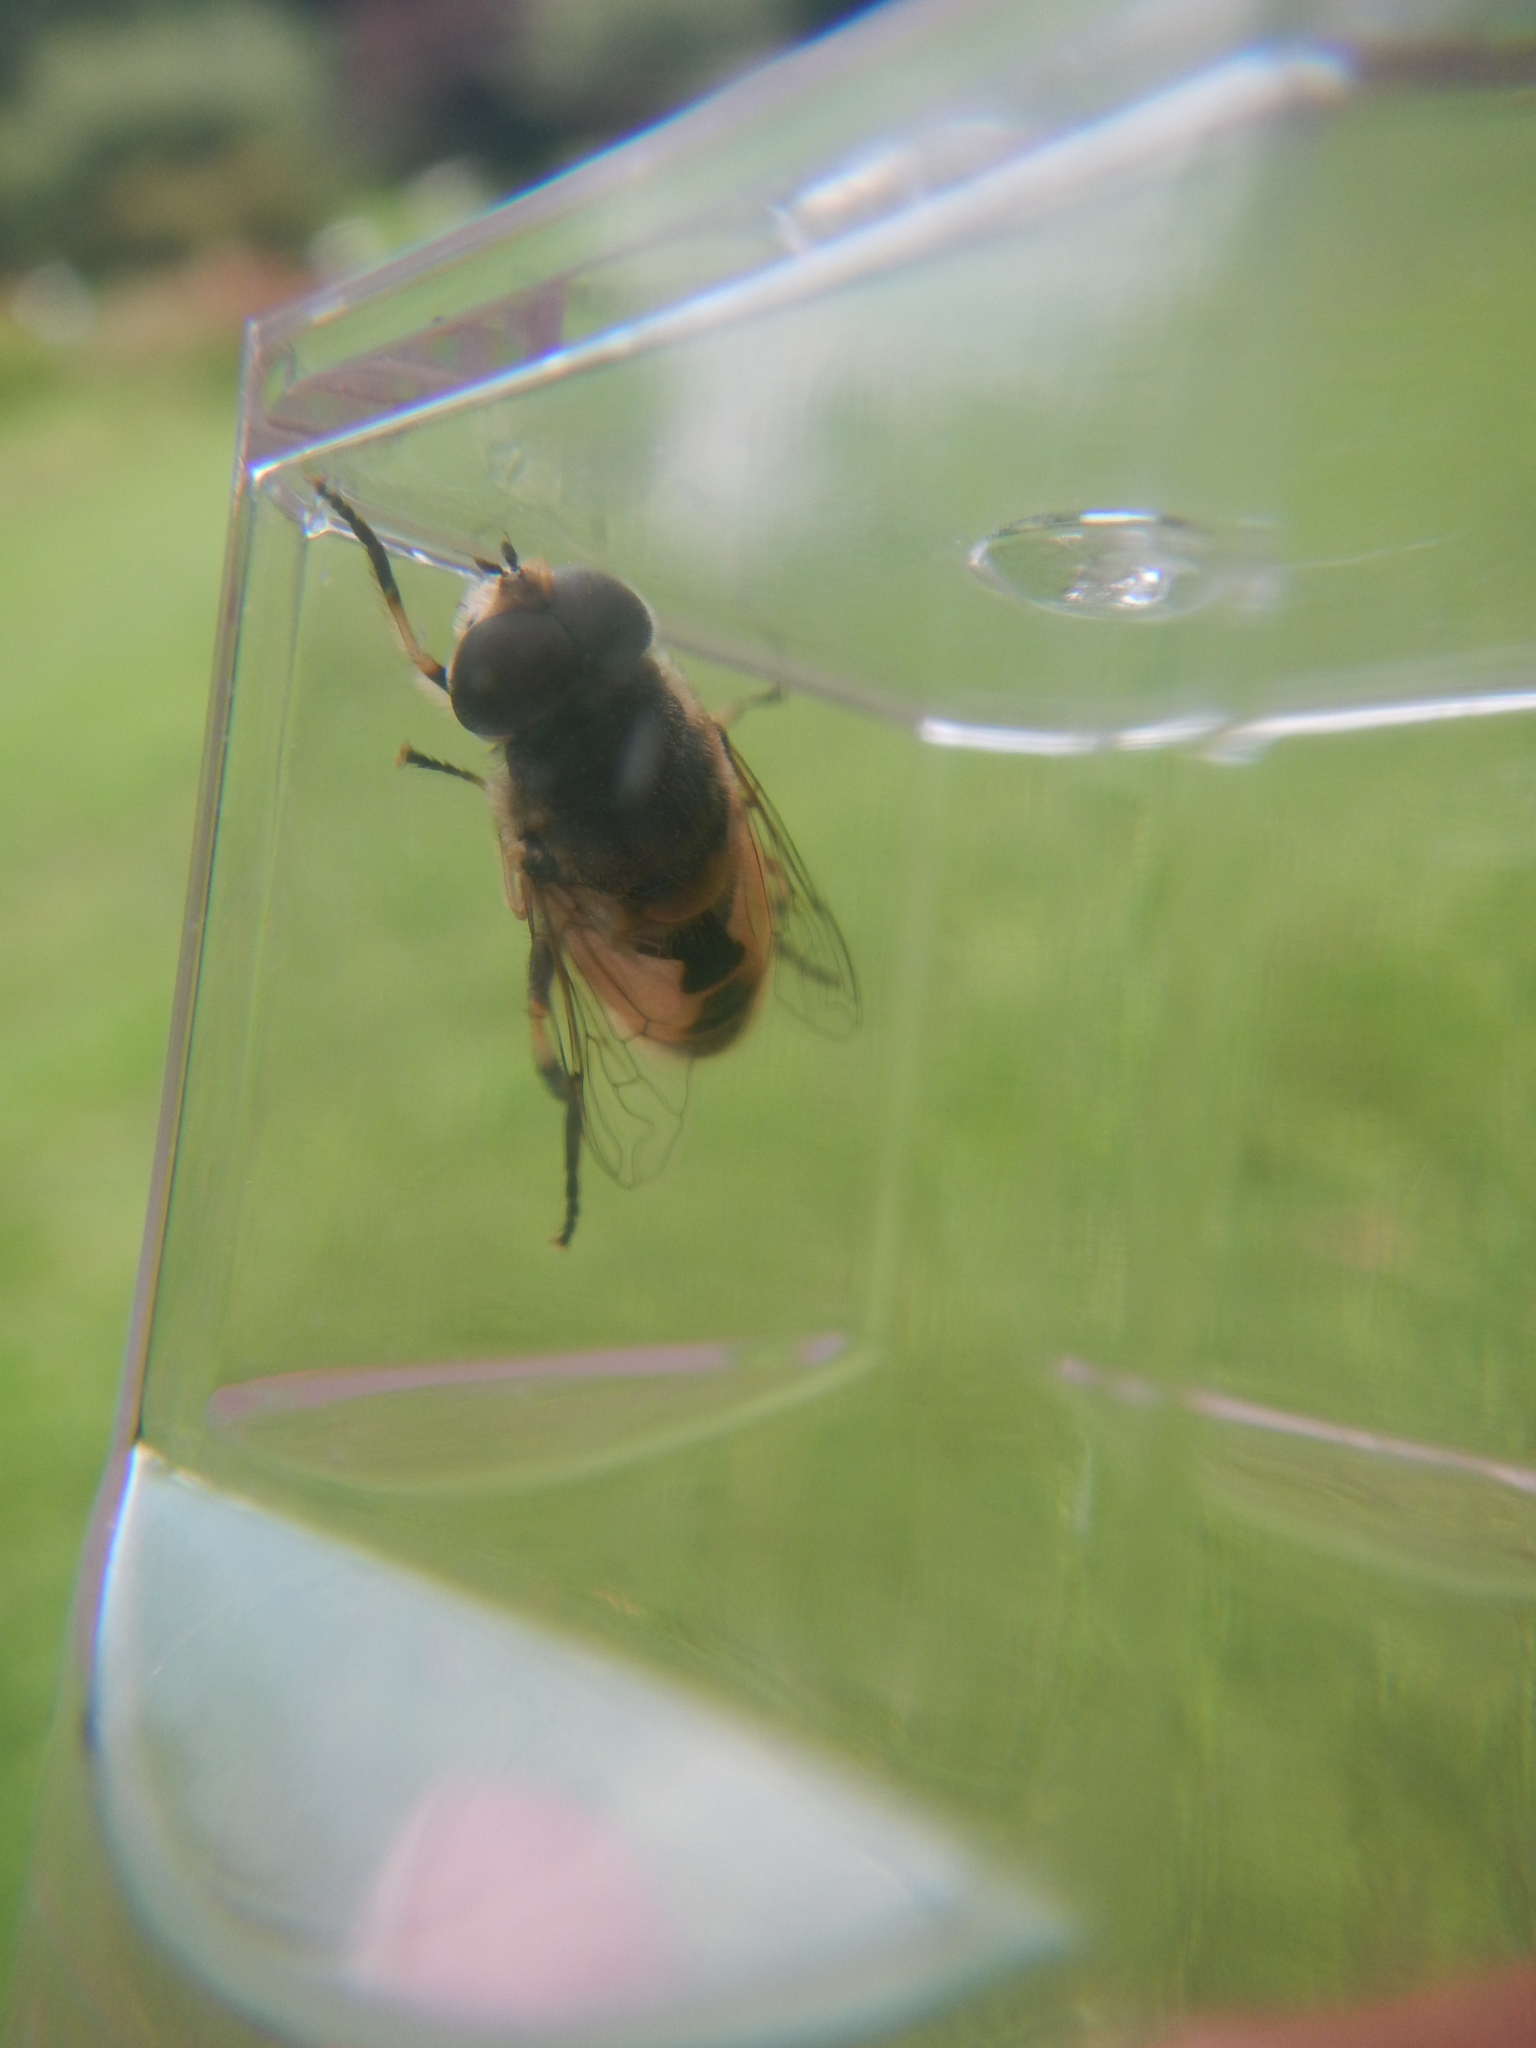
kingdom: Animalia
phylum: Arthropoda
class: Insecta
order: Diptera
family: Syrphidae
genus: Eristalis
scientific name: Eristalis arbustorum
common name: Hover fly
